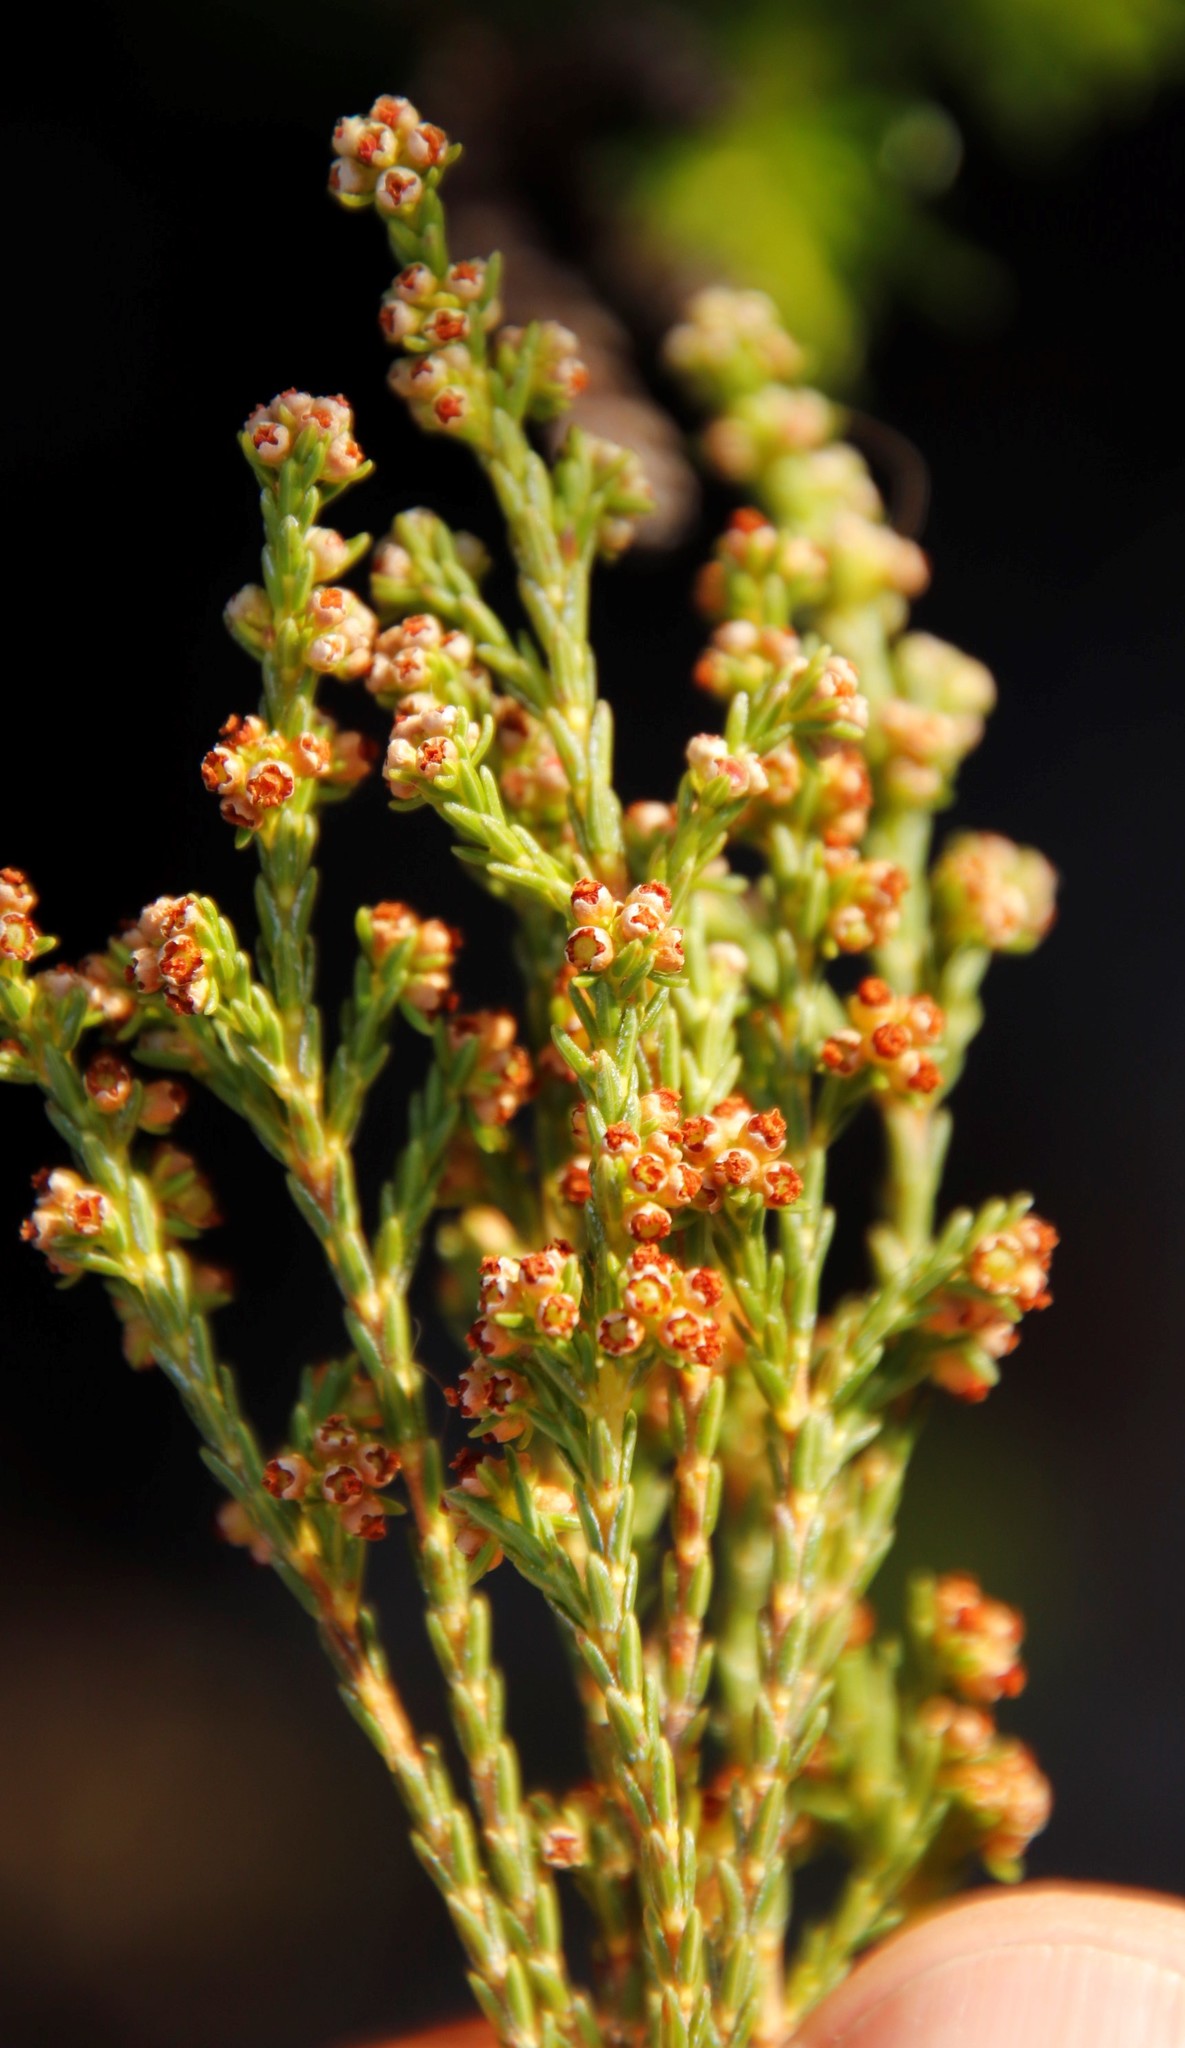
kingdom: Plantae
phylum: Tracheophyta
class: Magnoliopsida
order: Ericales
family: Ericaceae
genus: Erica
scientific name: Erica axillaris
